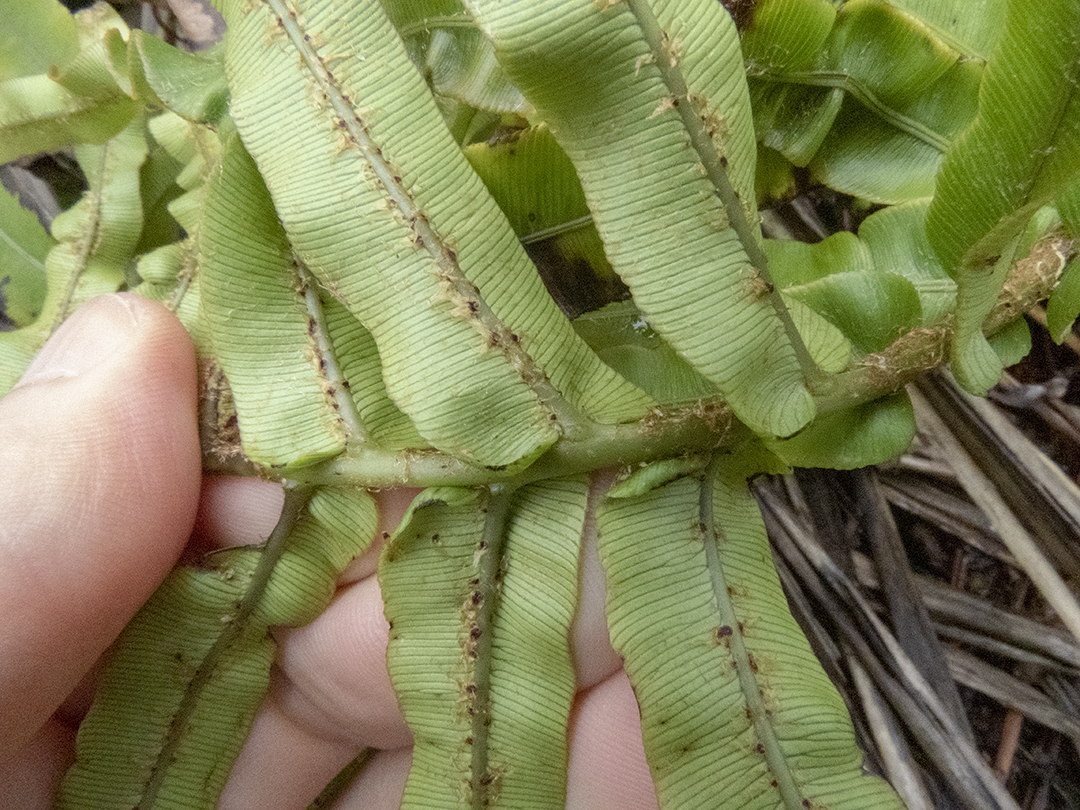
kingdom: Plantae
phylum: Tracheophyta
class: Polypodiopsida
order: Polypodiales
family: Blechnaceae
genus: Parablechnum
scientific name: Parablechnum novae-zelandiae
